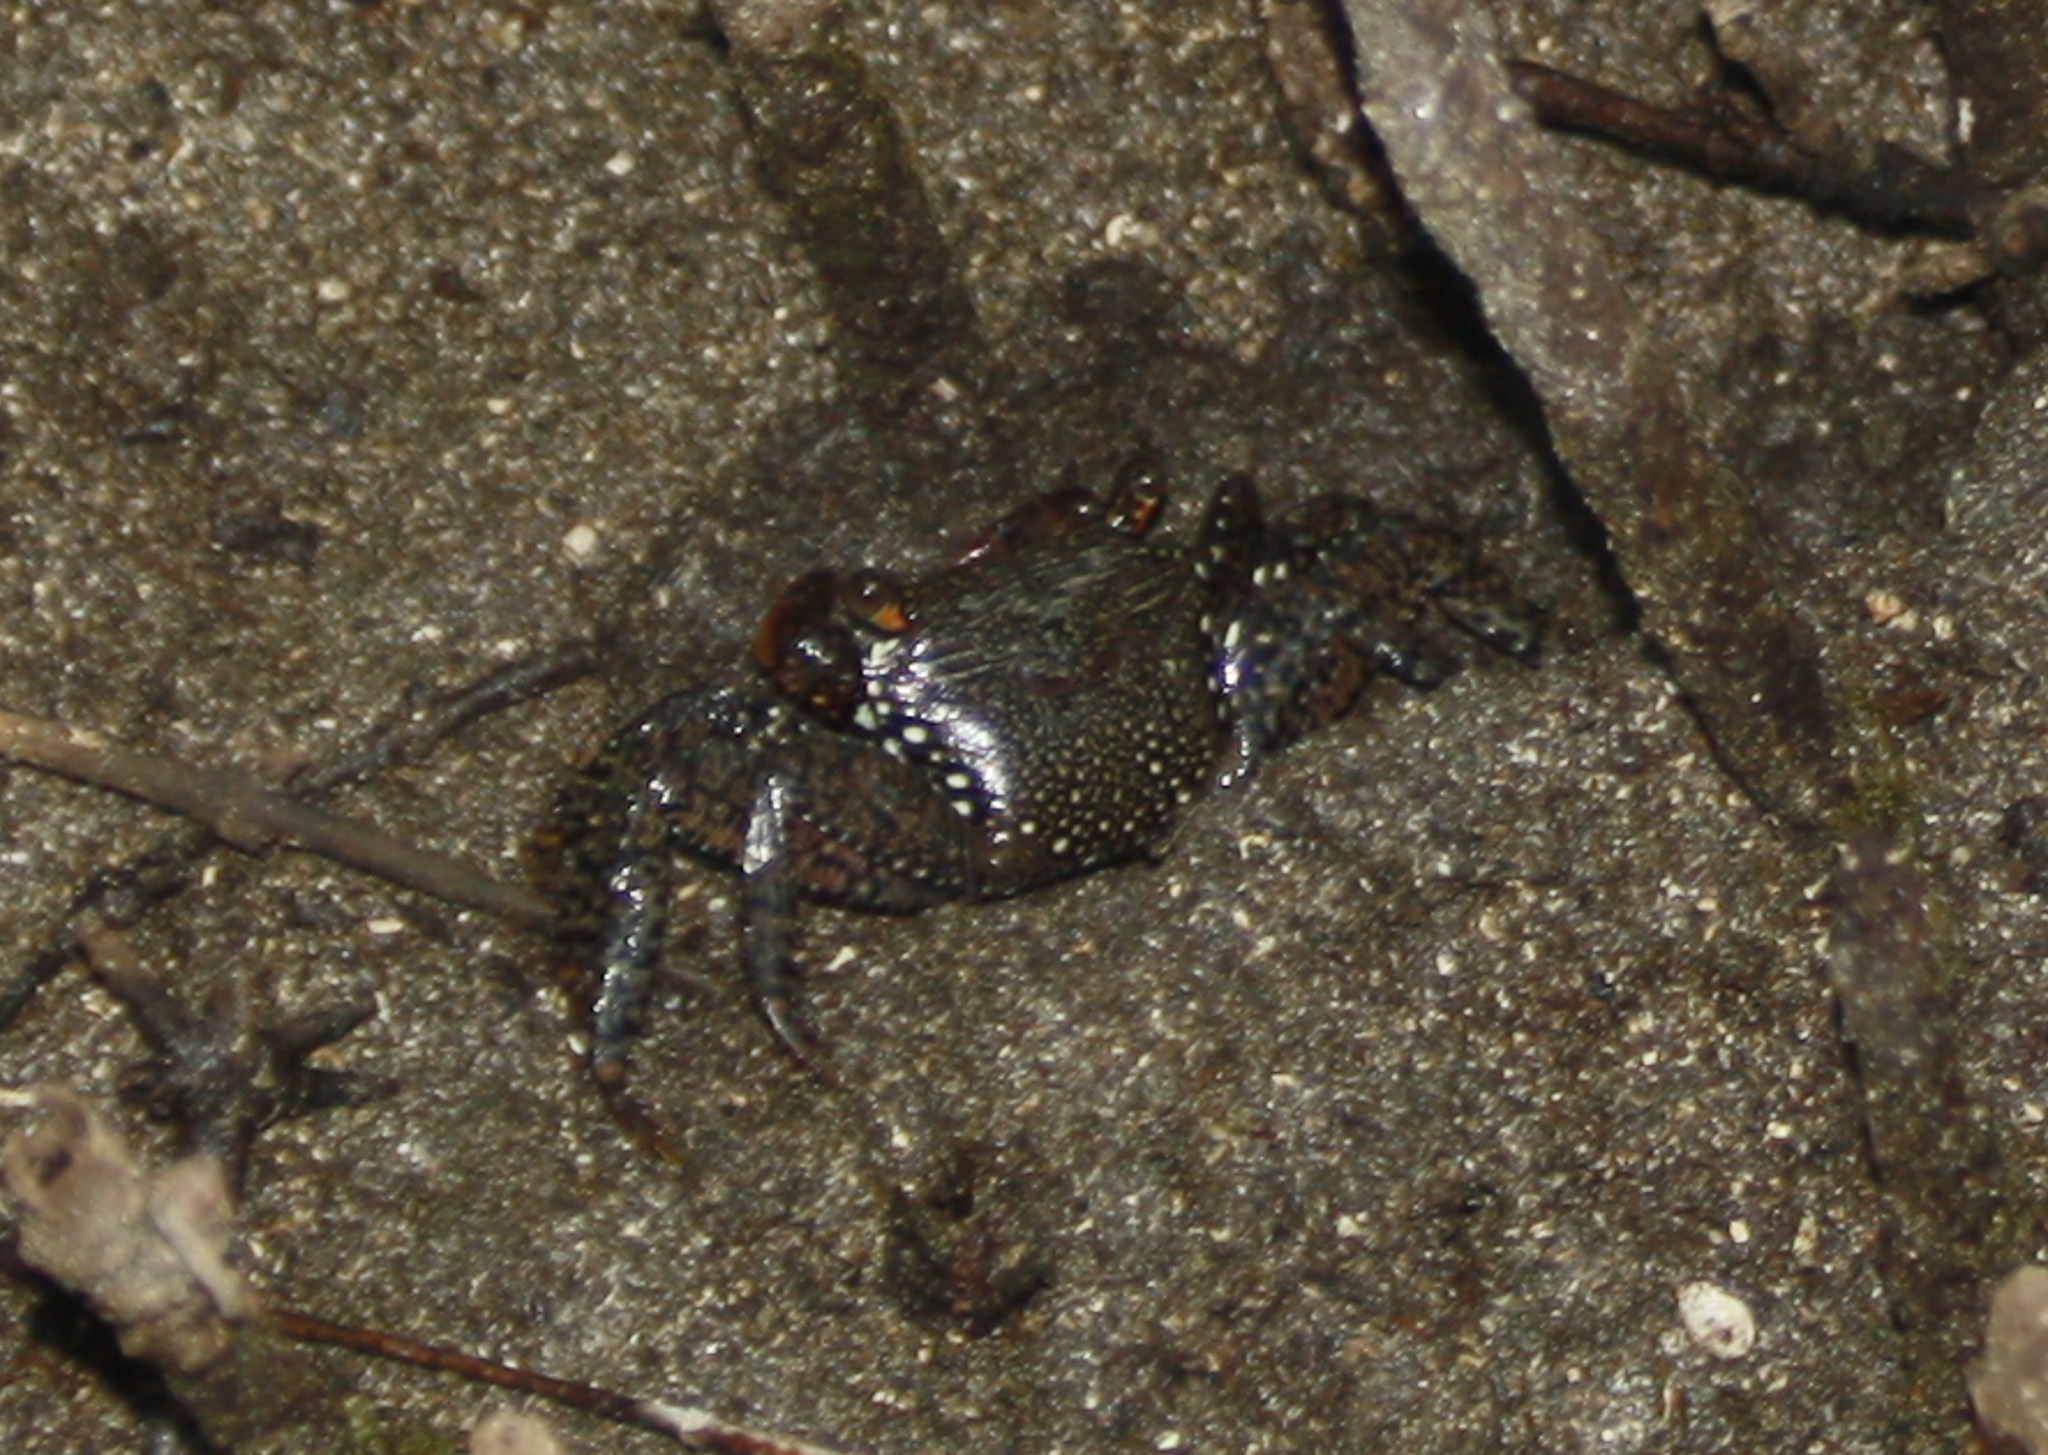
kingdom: Animalia
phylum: Arthropoda
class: Malacostraca
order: Decapoda
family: Grapsidae
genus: Goniopsis
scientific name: Goniopsis pulchra
